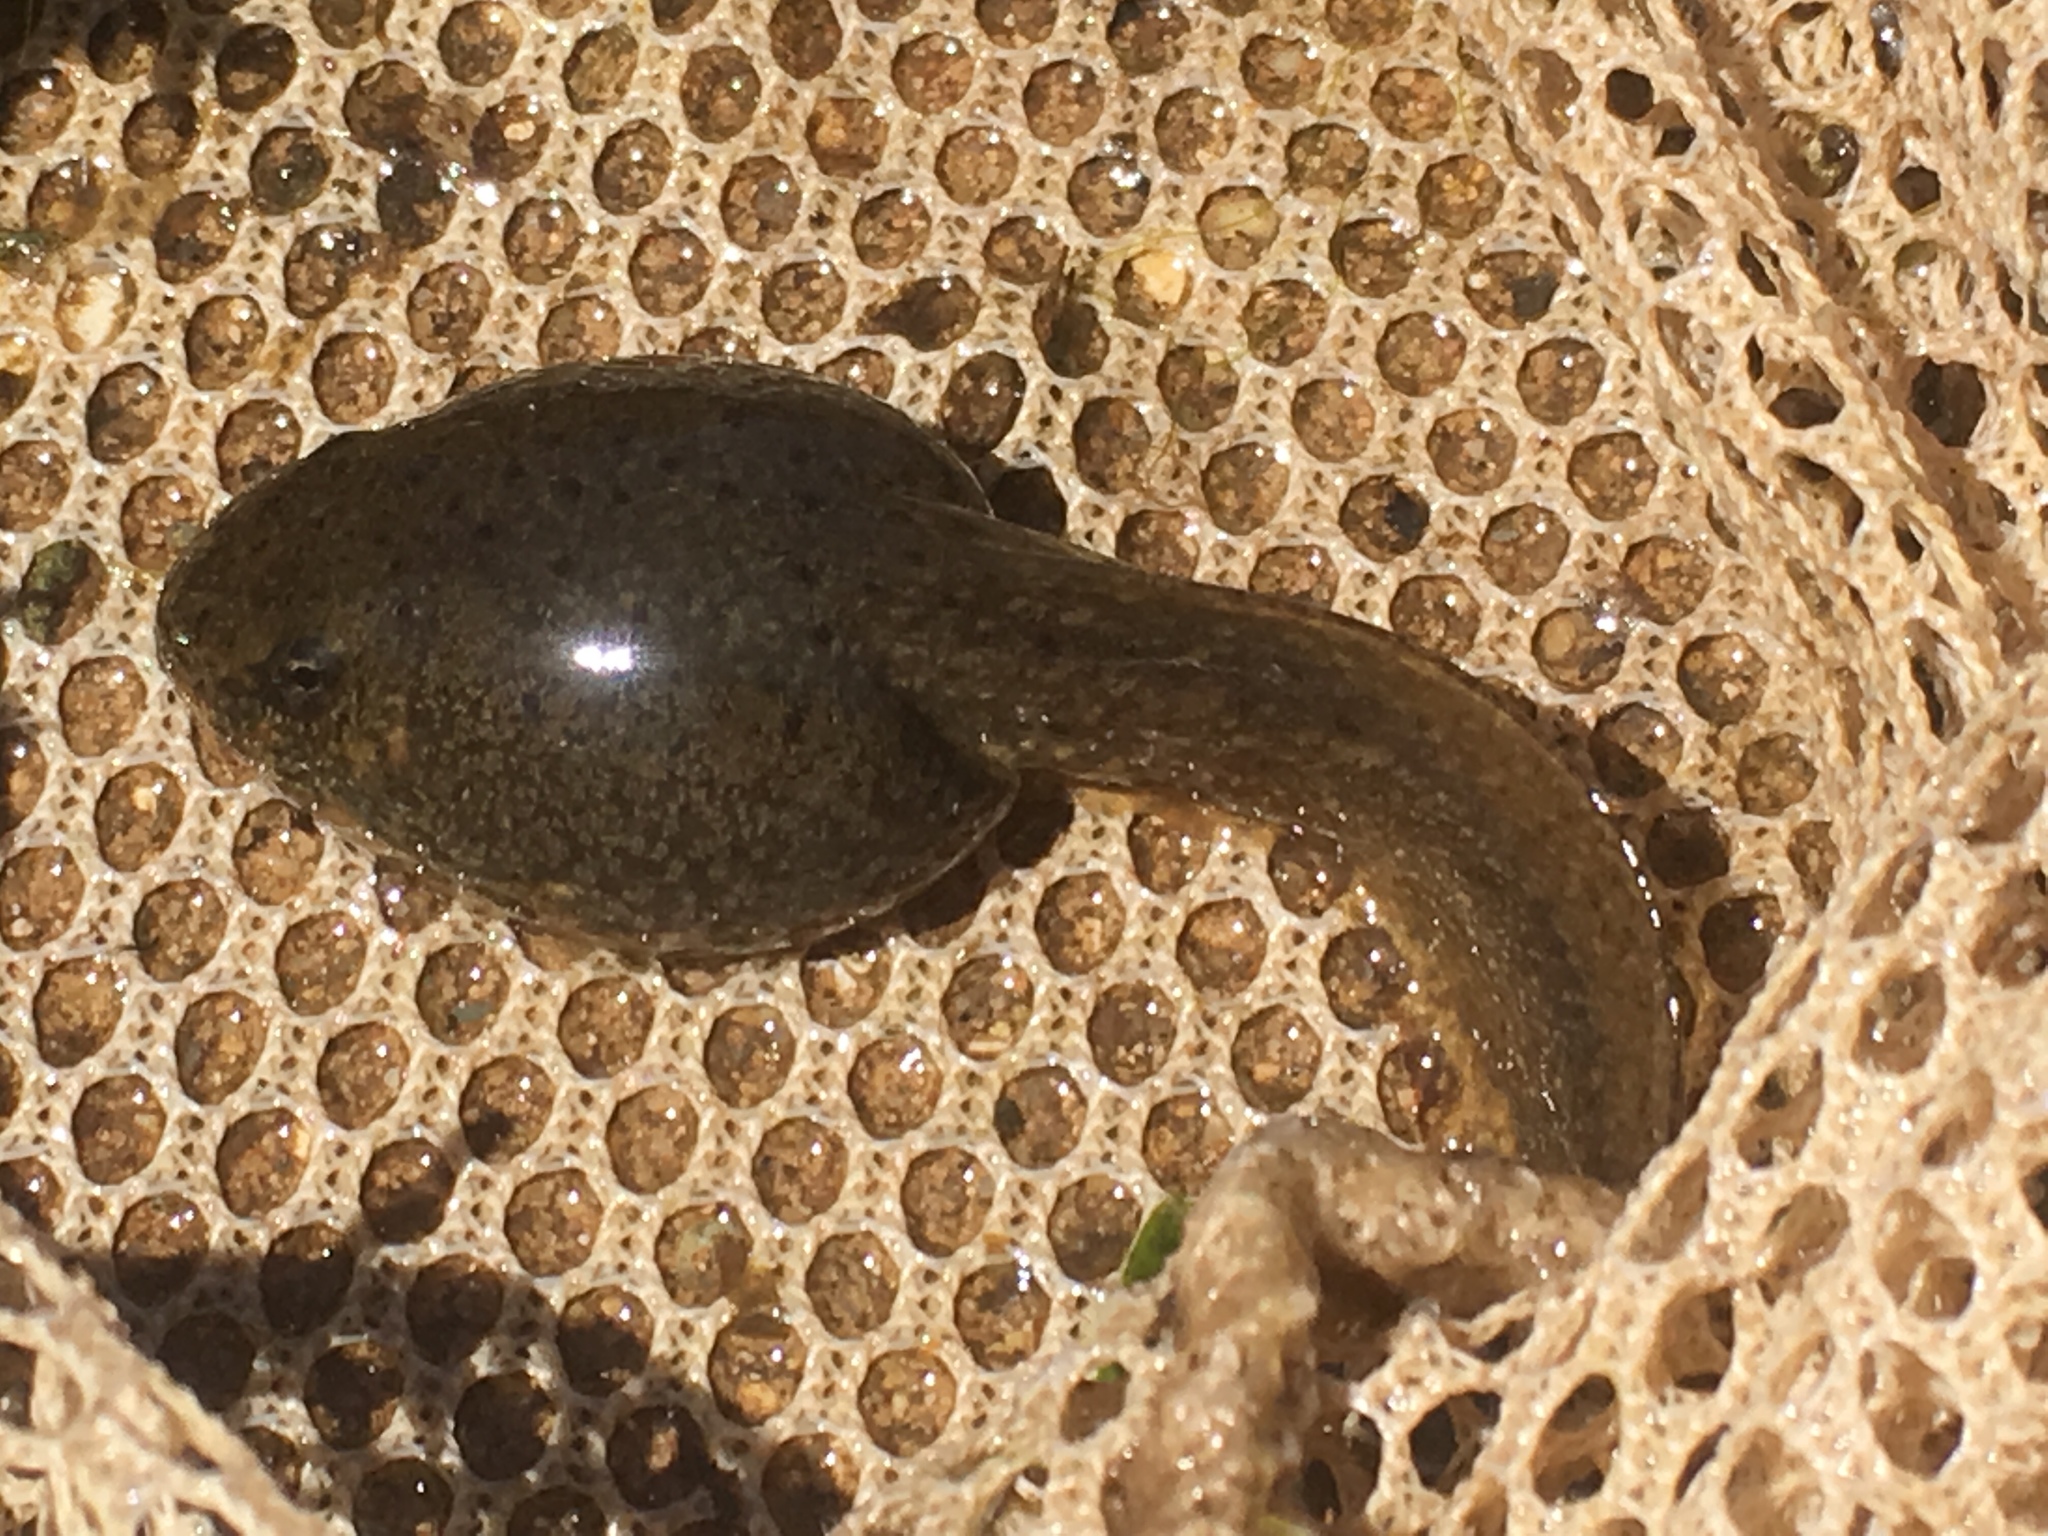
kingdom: Animalia
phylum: Chordata
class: Amphibia
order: Anura
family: Ranidae
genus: Lithobates
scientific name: Lithobates clamitans
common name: Green frog
